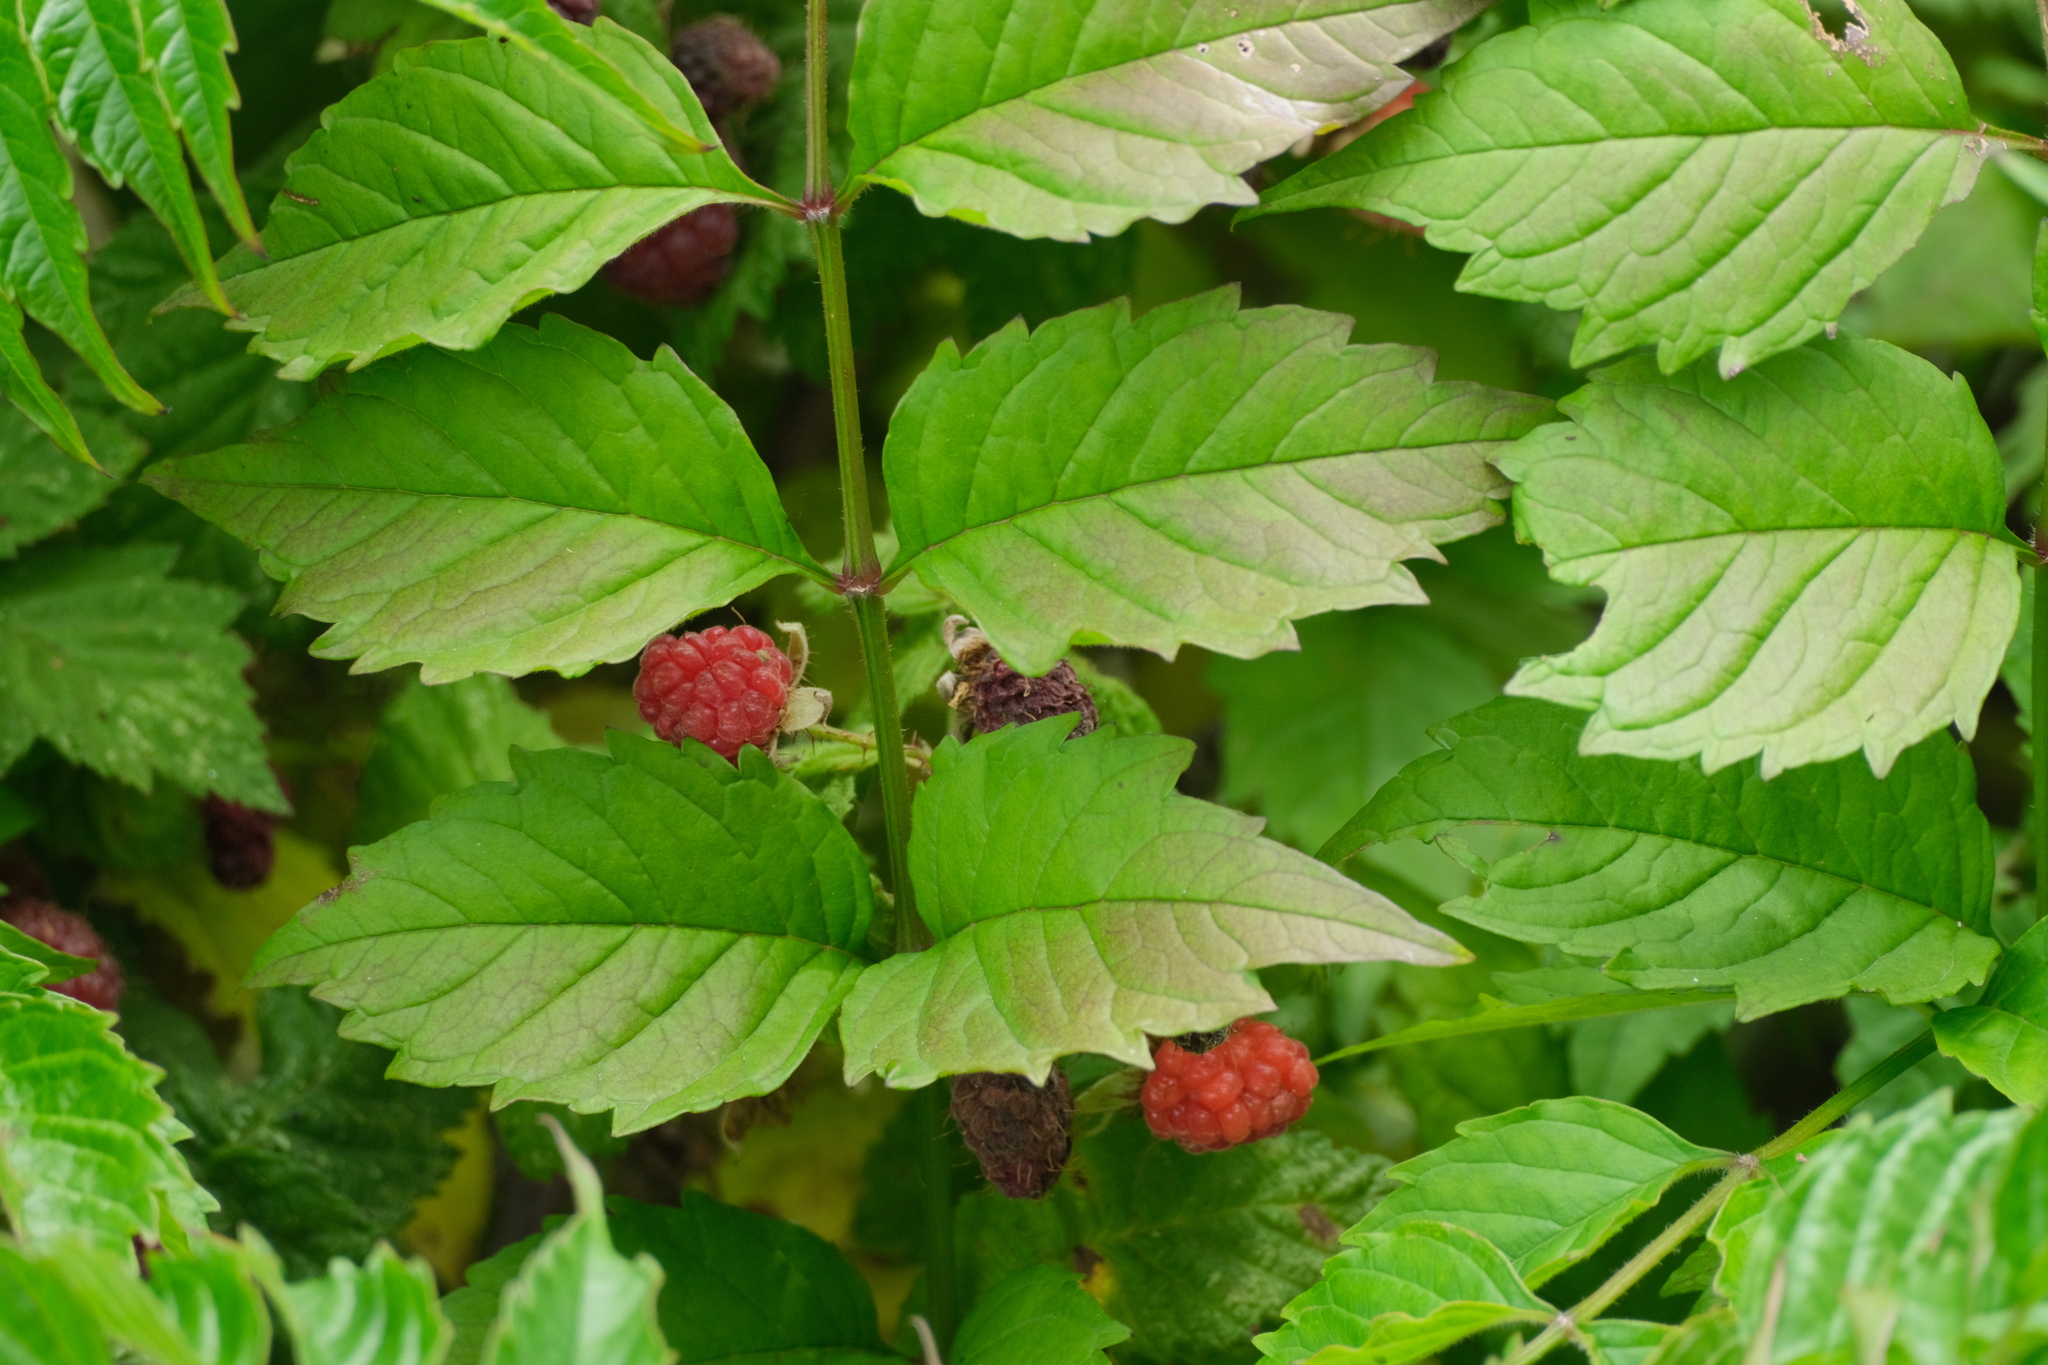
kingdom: Plantae
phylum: Tracheophyta
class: Magnoliopsida
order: Rosales
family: Rosaceae
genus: Rubus
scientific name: Rubus idaeus
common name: Raspberry
